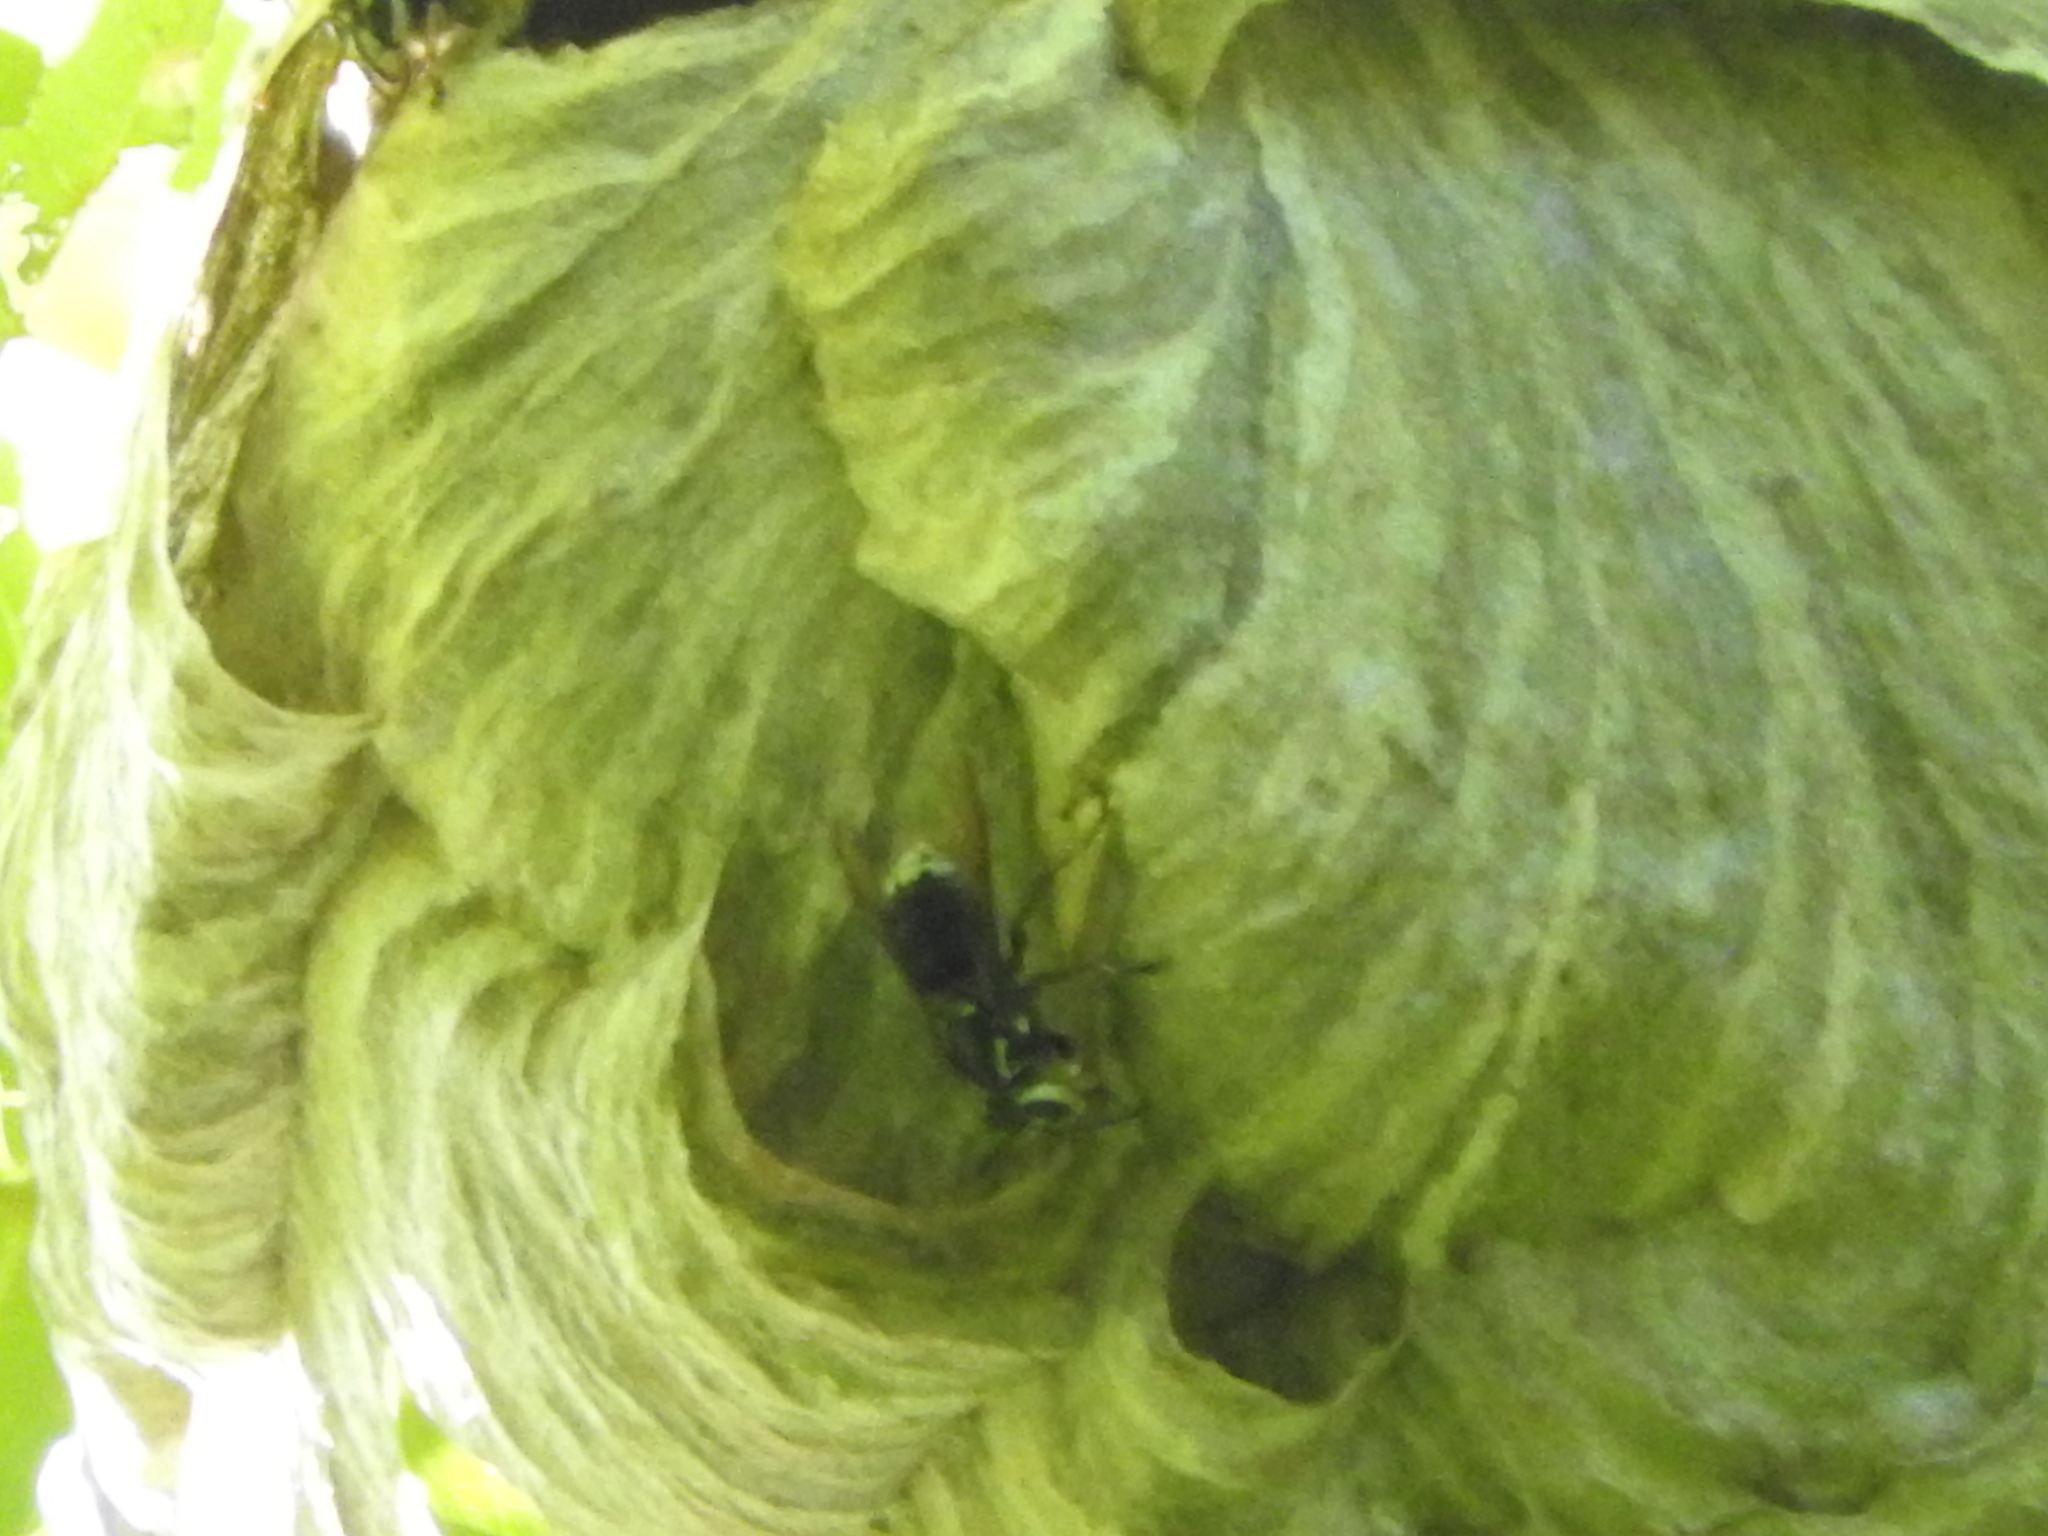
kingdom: Animalia
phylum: Arthropoda
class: Insecta
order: Hymenoptera
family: Vespidae
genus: Dolichovespula
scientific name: Dolichovespula maculata
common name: Bald-faced hornet
